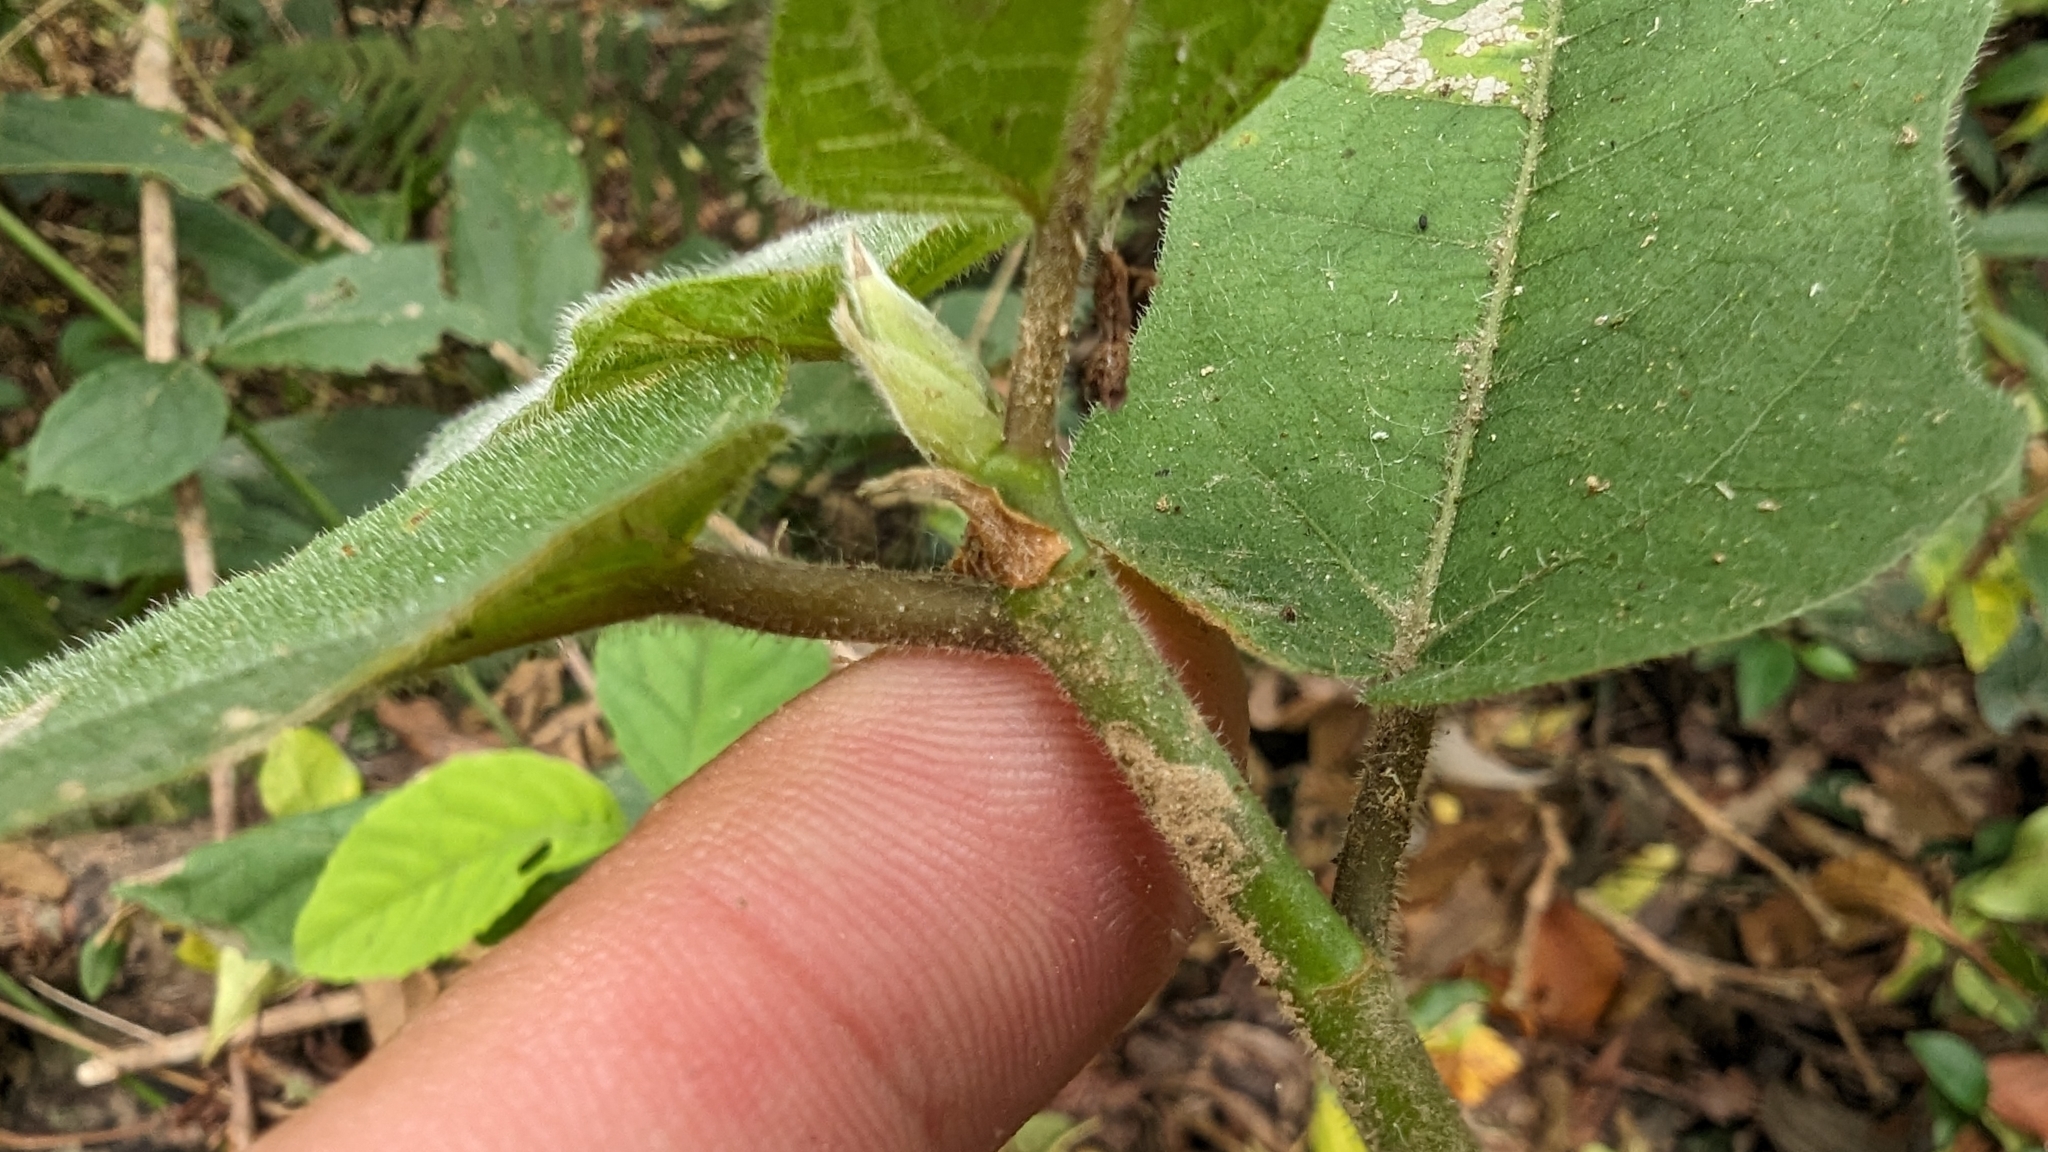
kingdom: Plantae
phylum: Tracheophyta
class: Magnoliopsida
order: Rosales
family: Moraceae
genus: Ficus
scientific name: Ficus erecta
